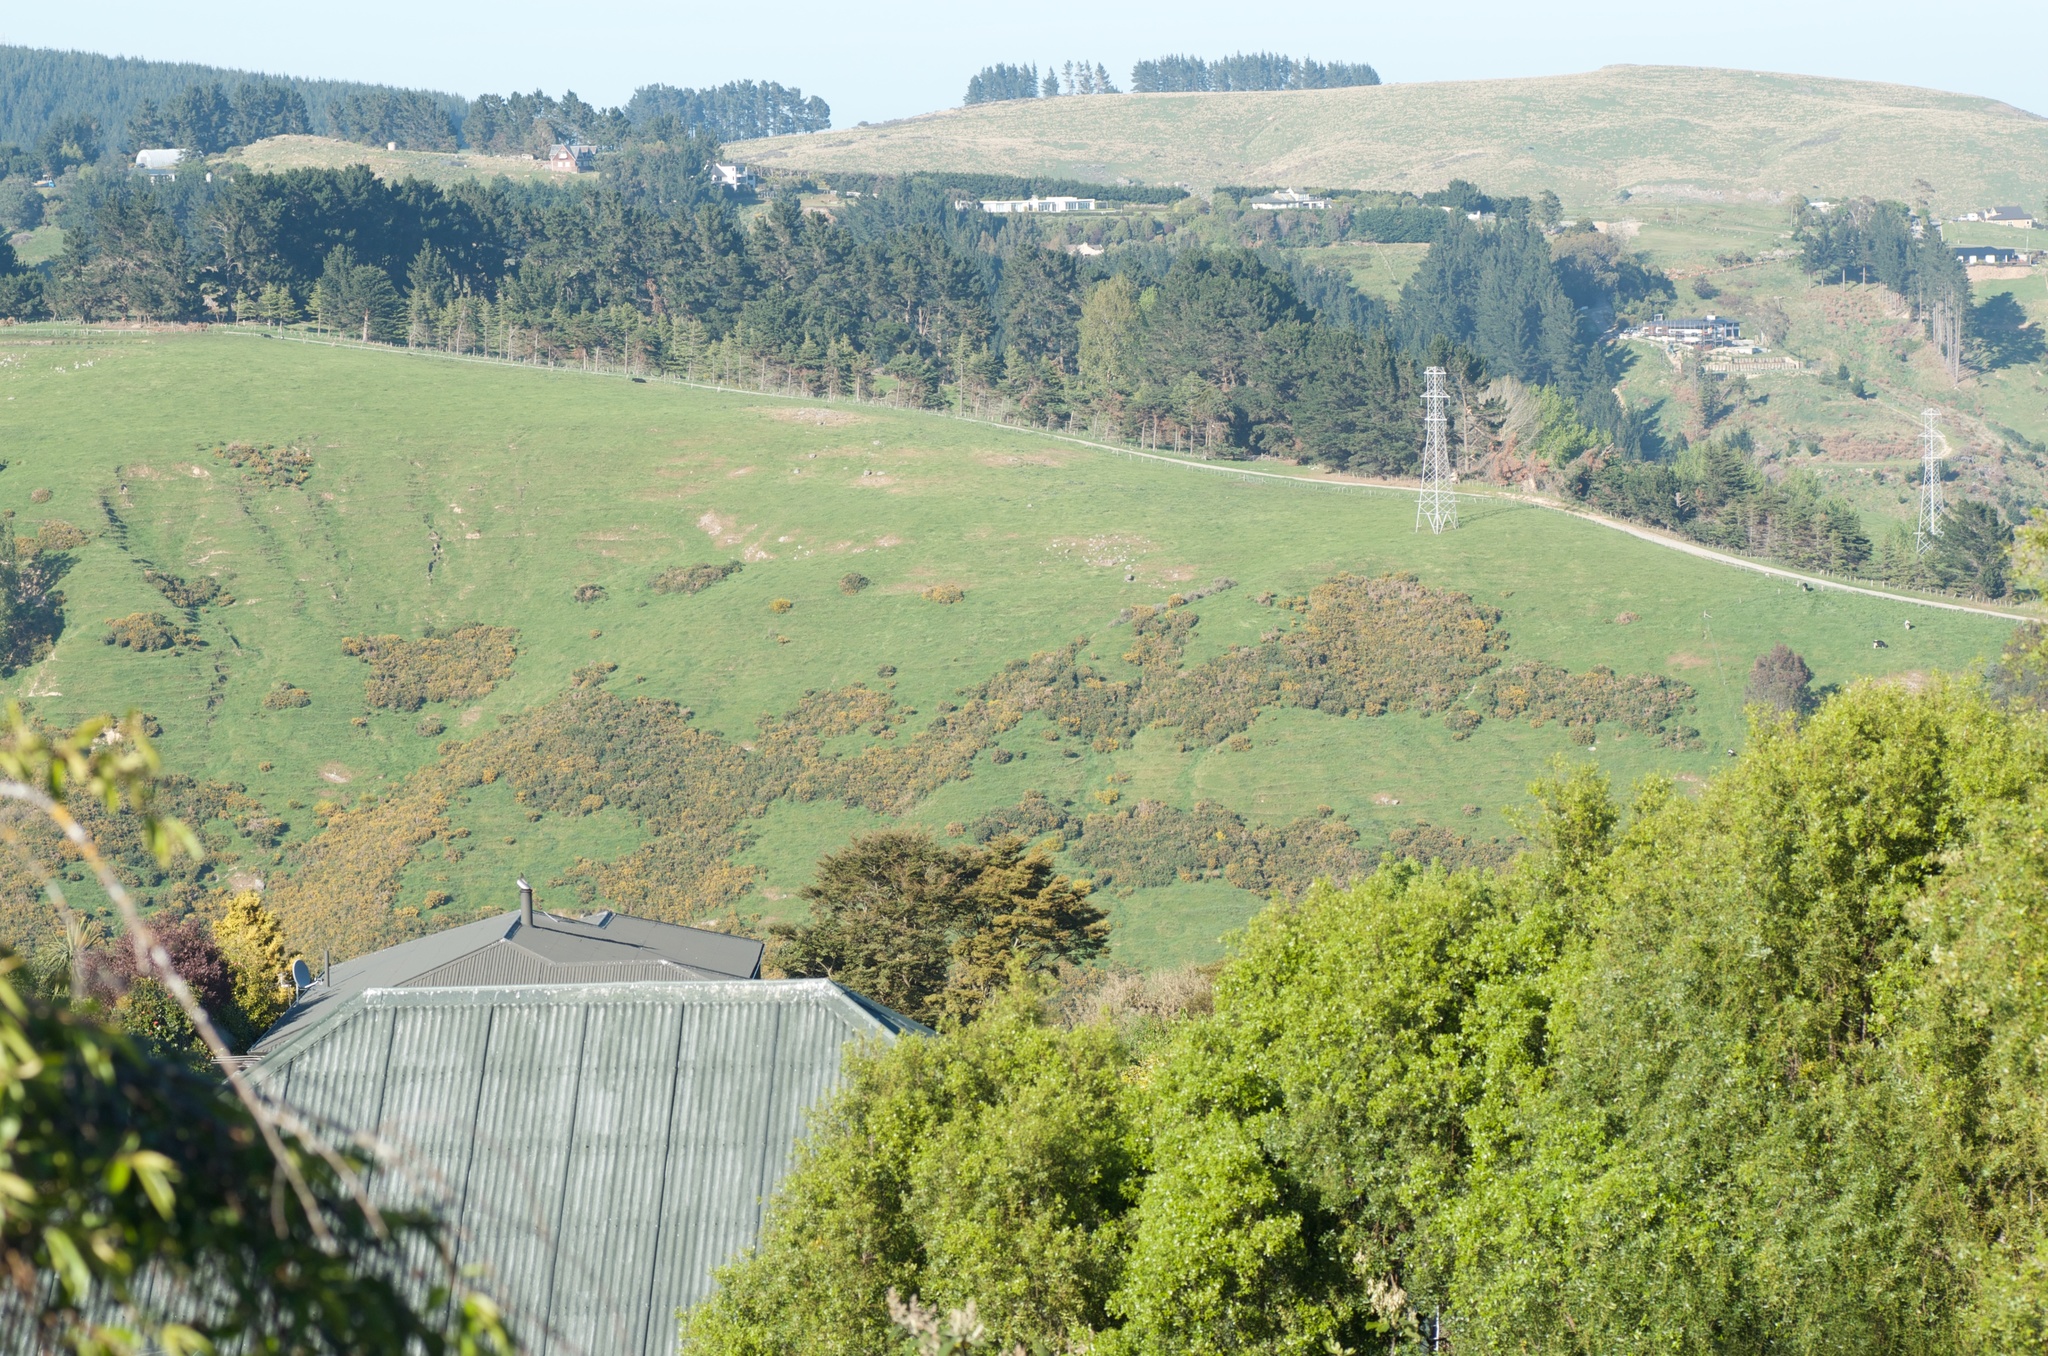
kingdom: Plantae
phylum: Tracheophyta
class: Magnoliopsida
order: Fabales
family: Fabaceae
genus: Ulex
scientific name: Ulex europaeus
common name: Common gorse
